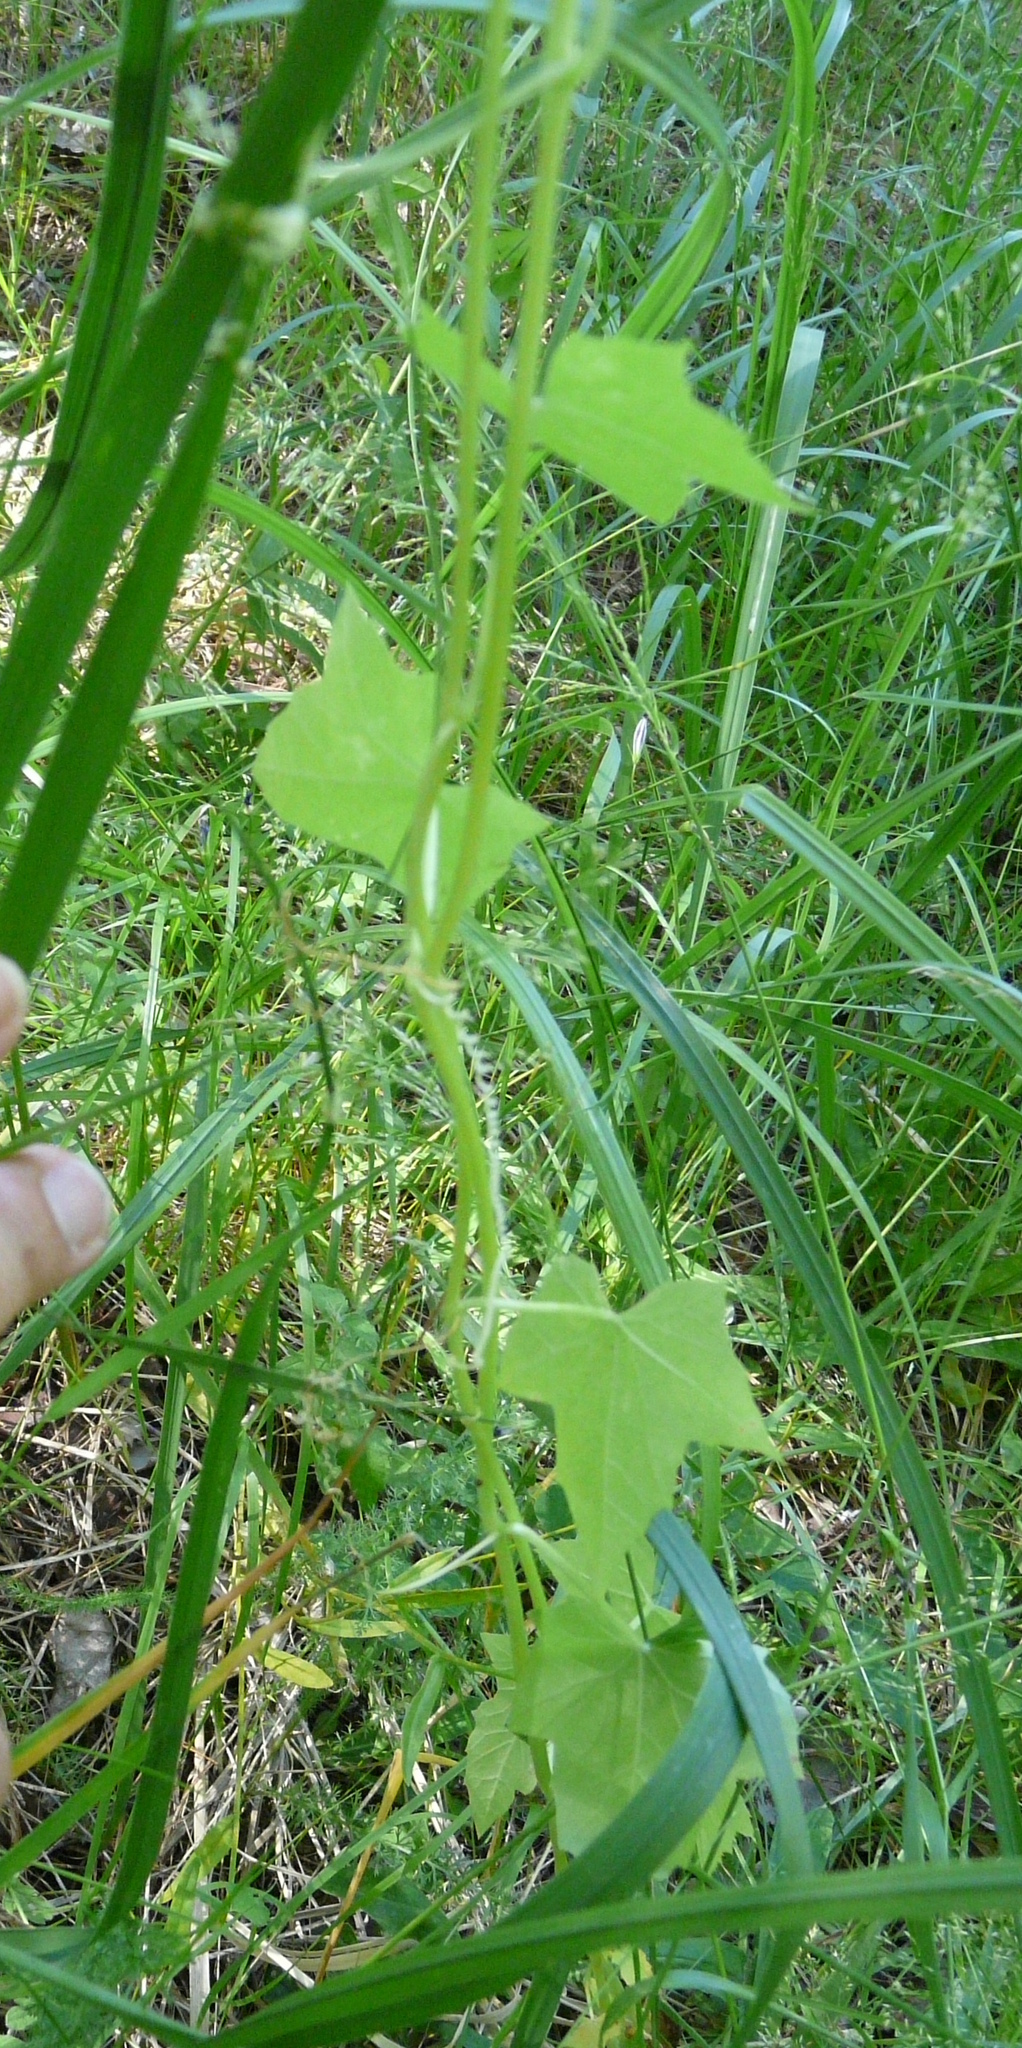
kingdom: Plantae
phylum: Tracheophyta
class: Magnoliopsida
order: Cucurbitales
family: Cucurbitaceae
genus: Echinocystis
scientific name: Echinocystis lobata
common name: Wild cucumber
